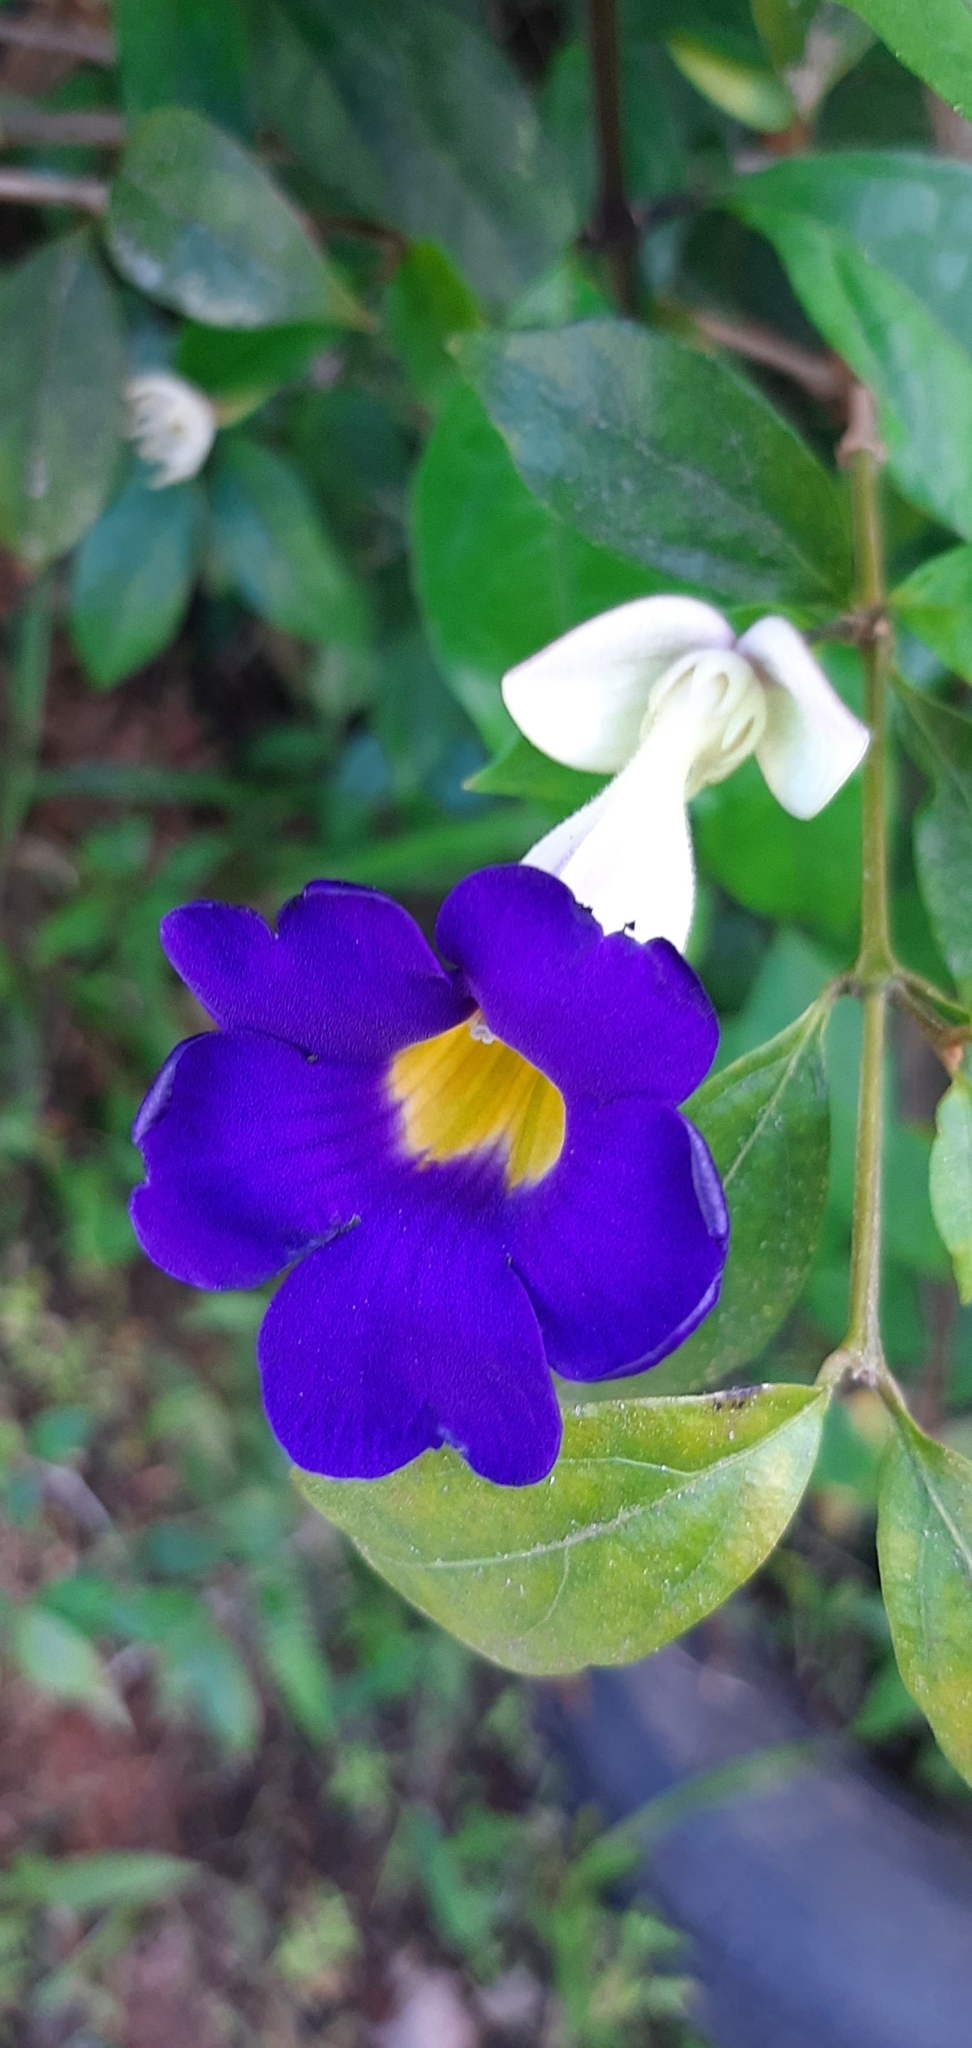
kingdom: Plantae
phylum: Tracheophyta
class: Magnoliopsida
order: Lamiales
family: Acanthaceae
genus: Thunbergia
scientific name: Thunbergia erecta
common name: Bush clockvine
